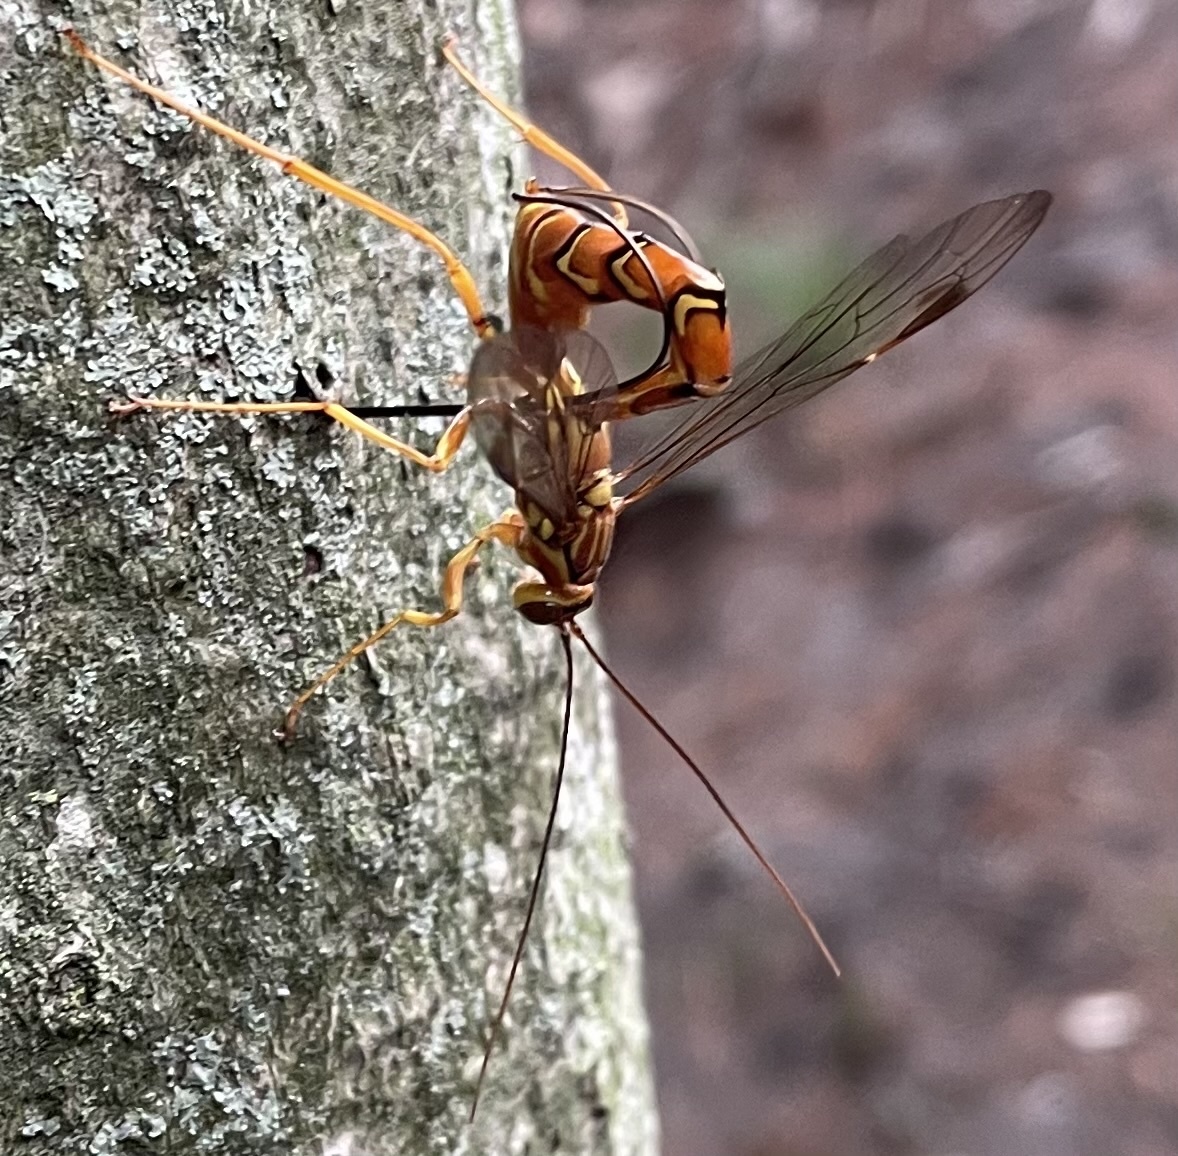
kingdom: Animalia
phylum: Arthropoda
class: Insecta
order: Hymenoptera
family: Ichneumonidae
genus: Megarhyssa
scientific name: Megarhyssa greenei
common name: Greene's giant ichneumonid wasp
